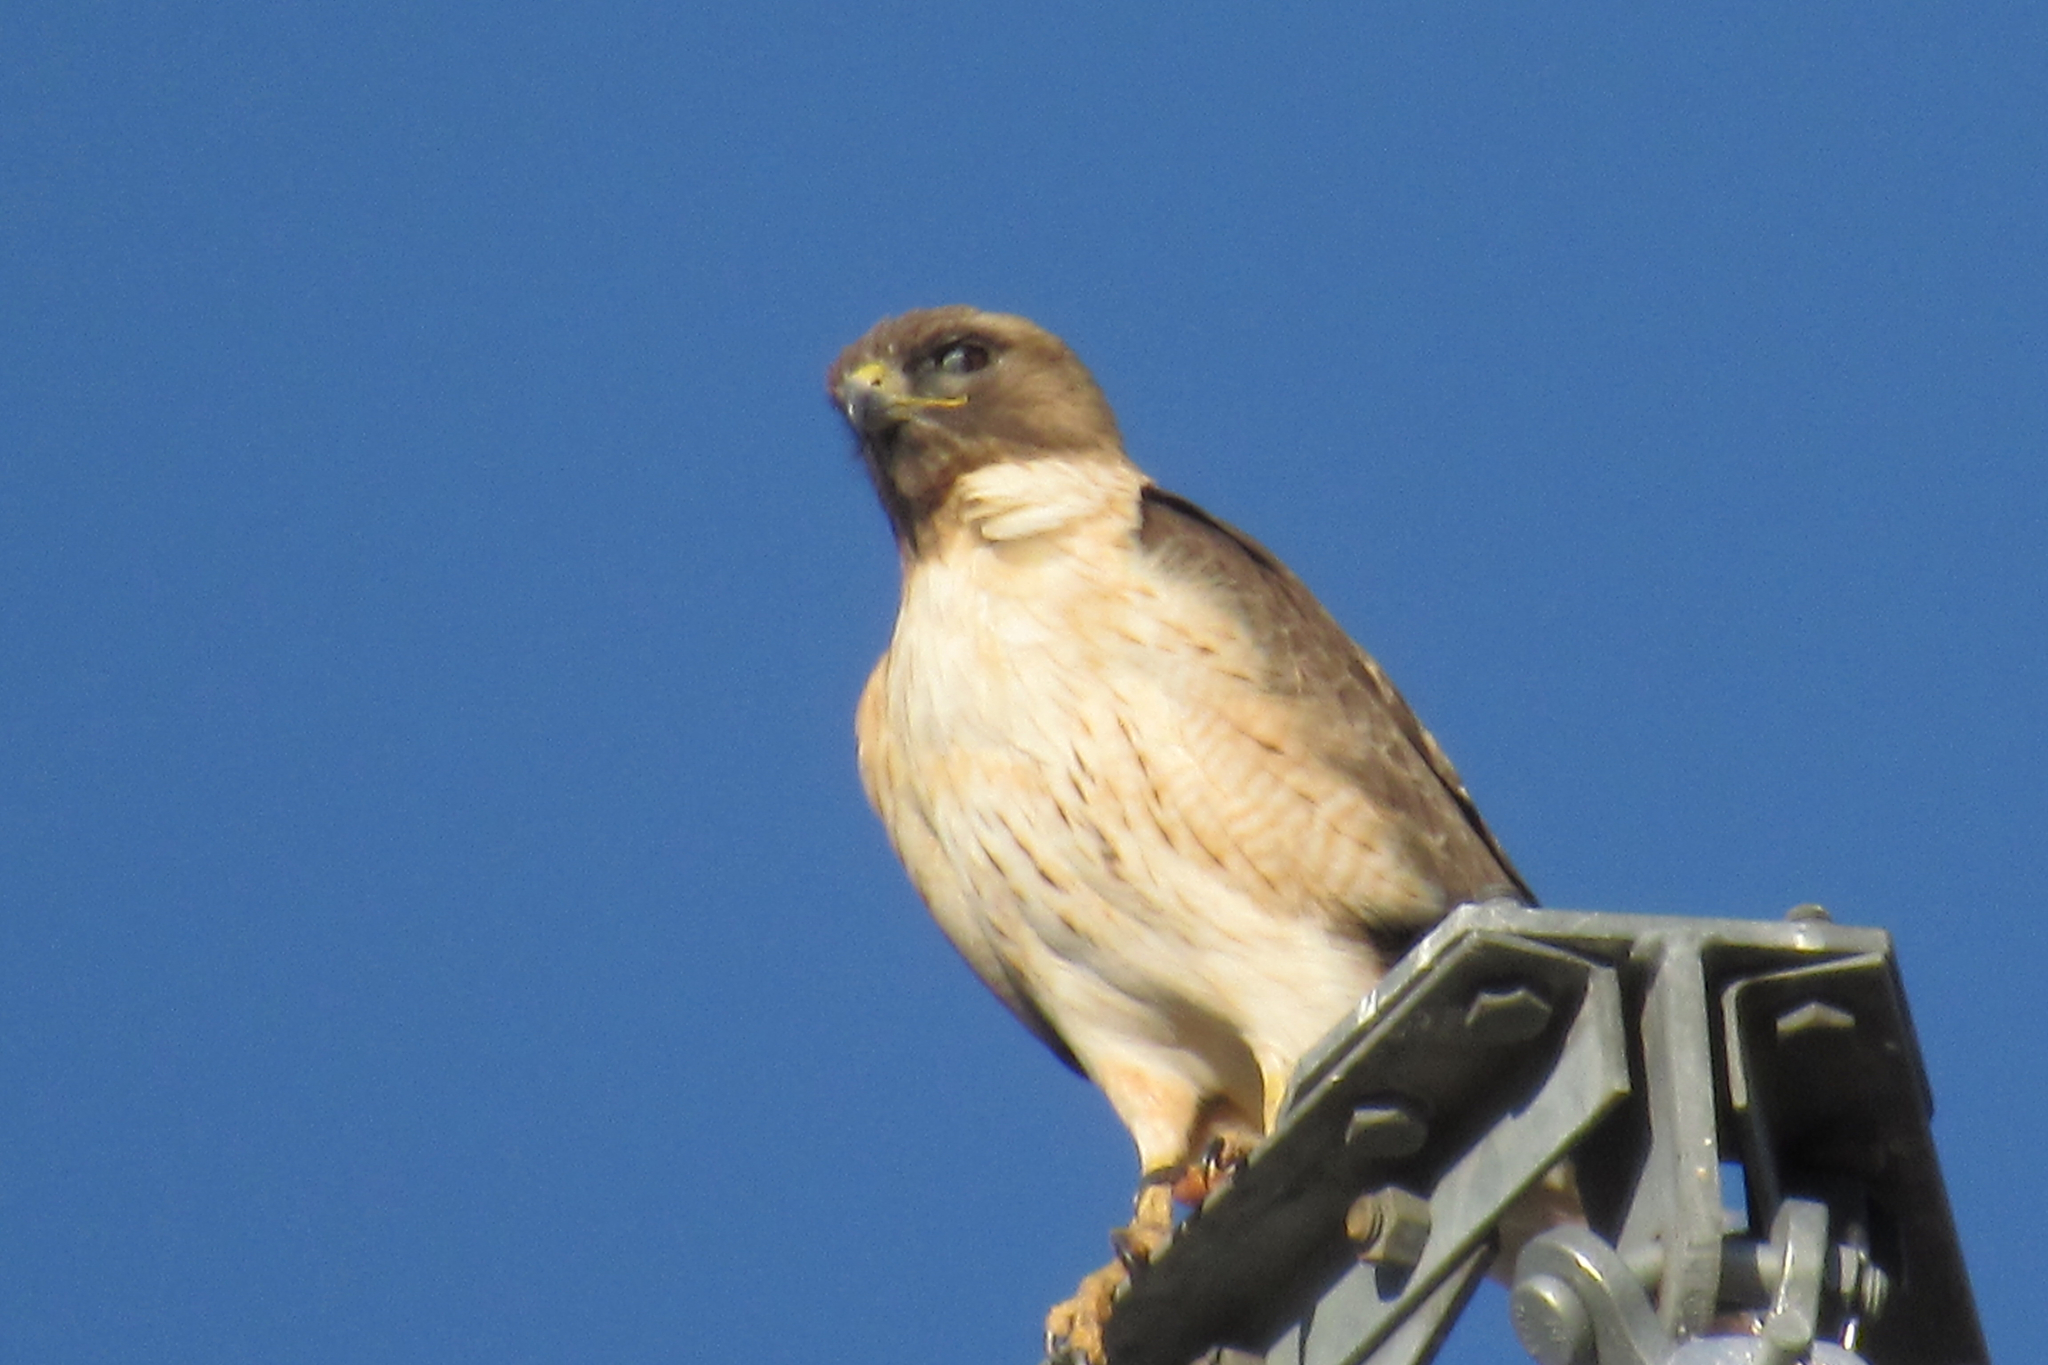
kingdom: Animalia
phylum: Chordata
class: Aves
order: Accipitriformes
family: Accipitridae
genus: Buteo
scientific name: Buteo jamaicensis
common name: Red-tailed hawk
